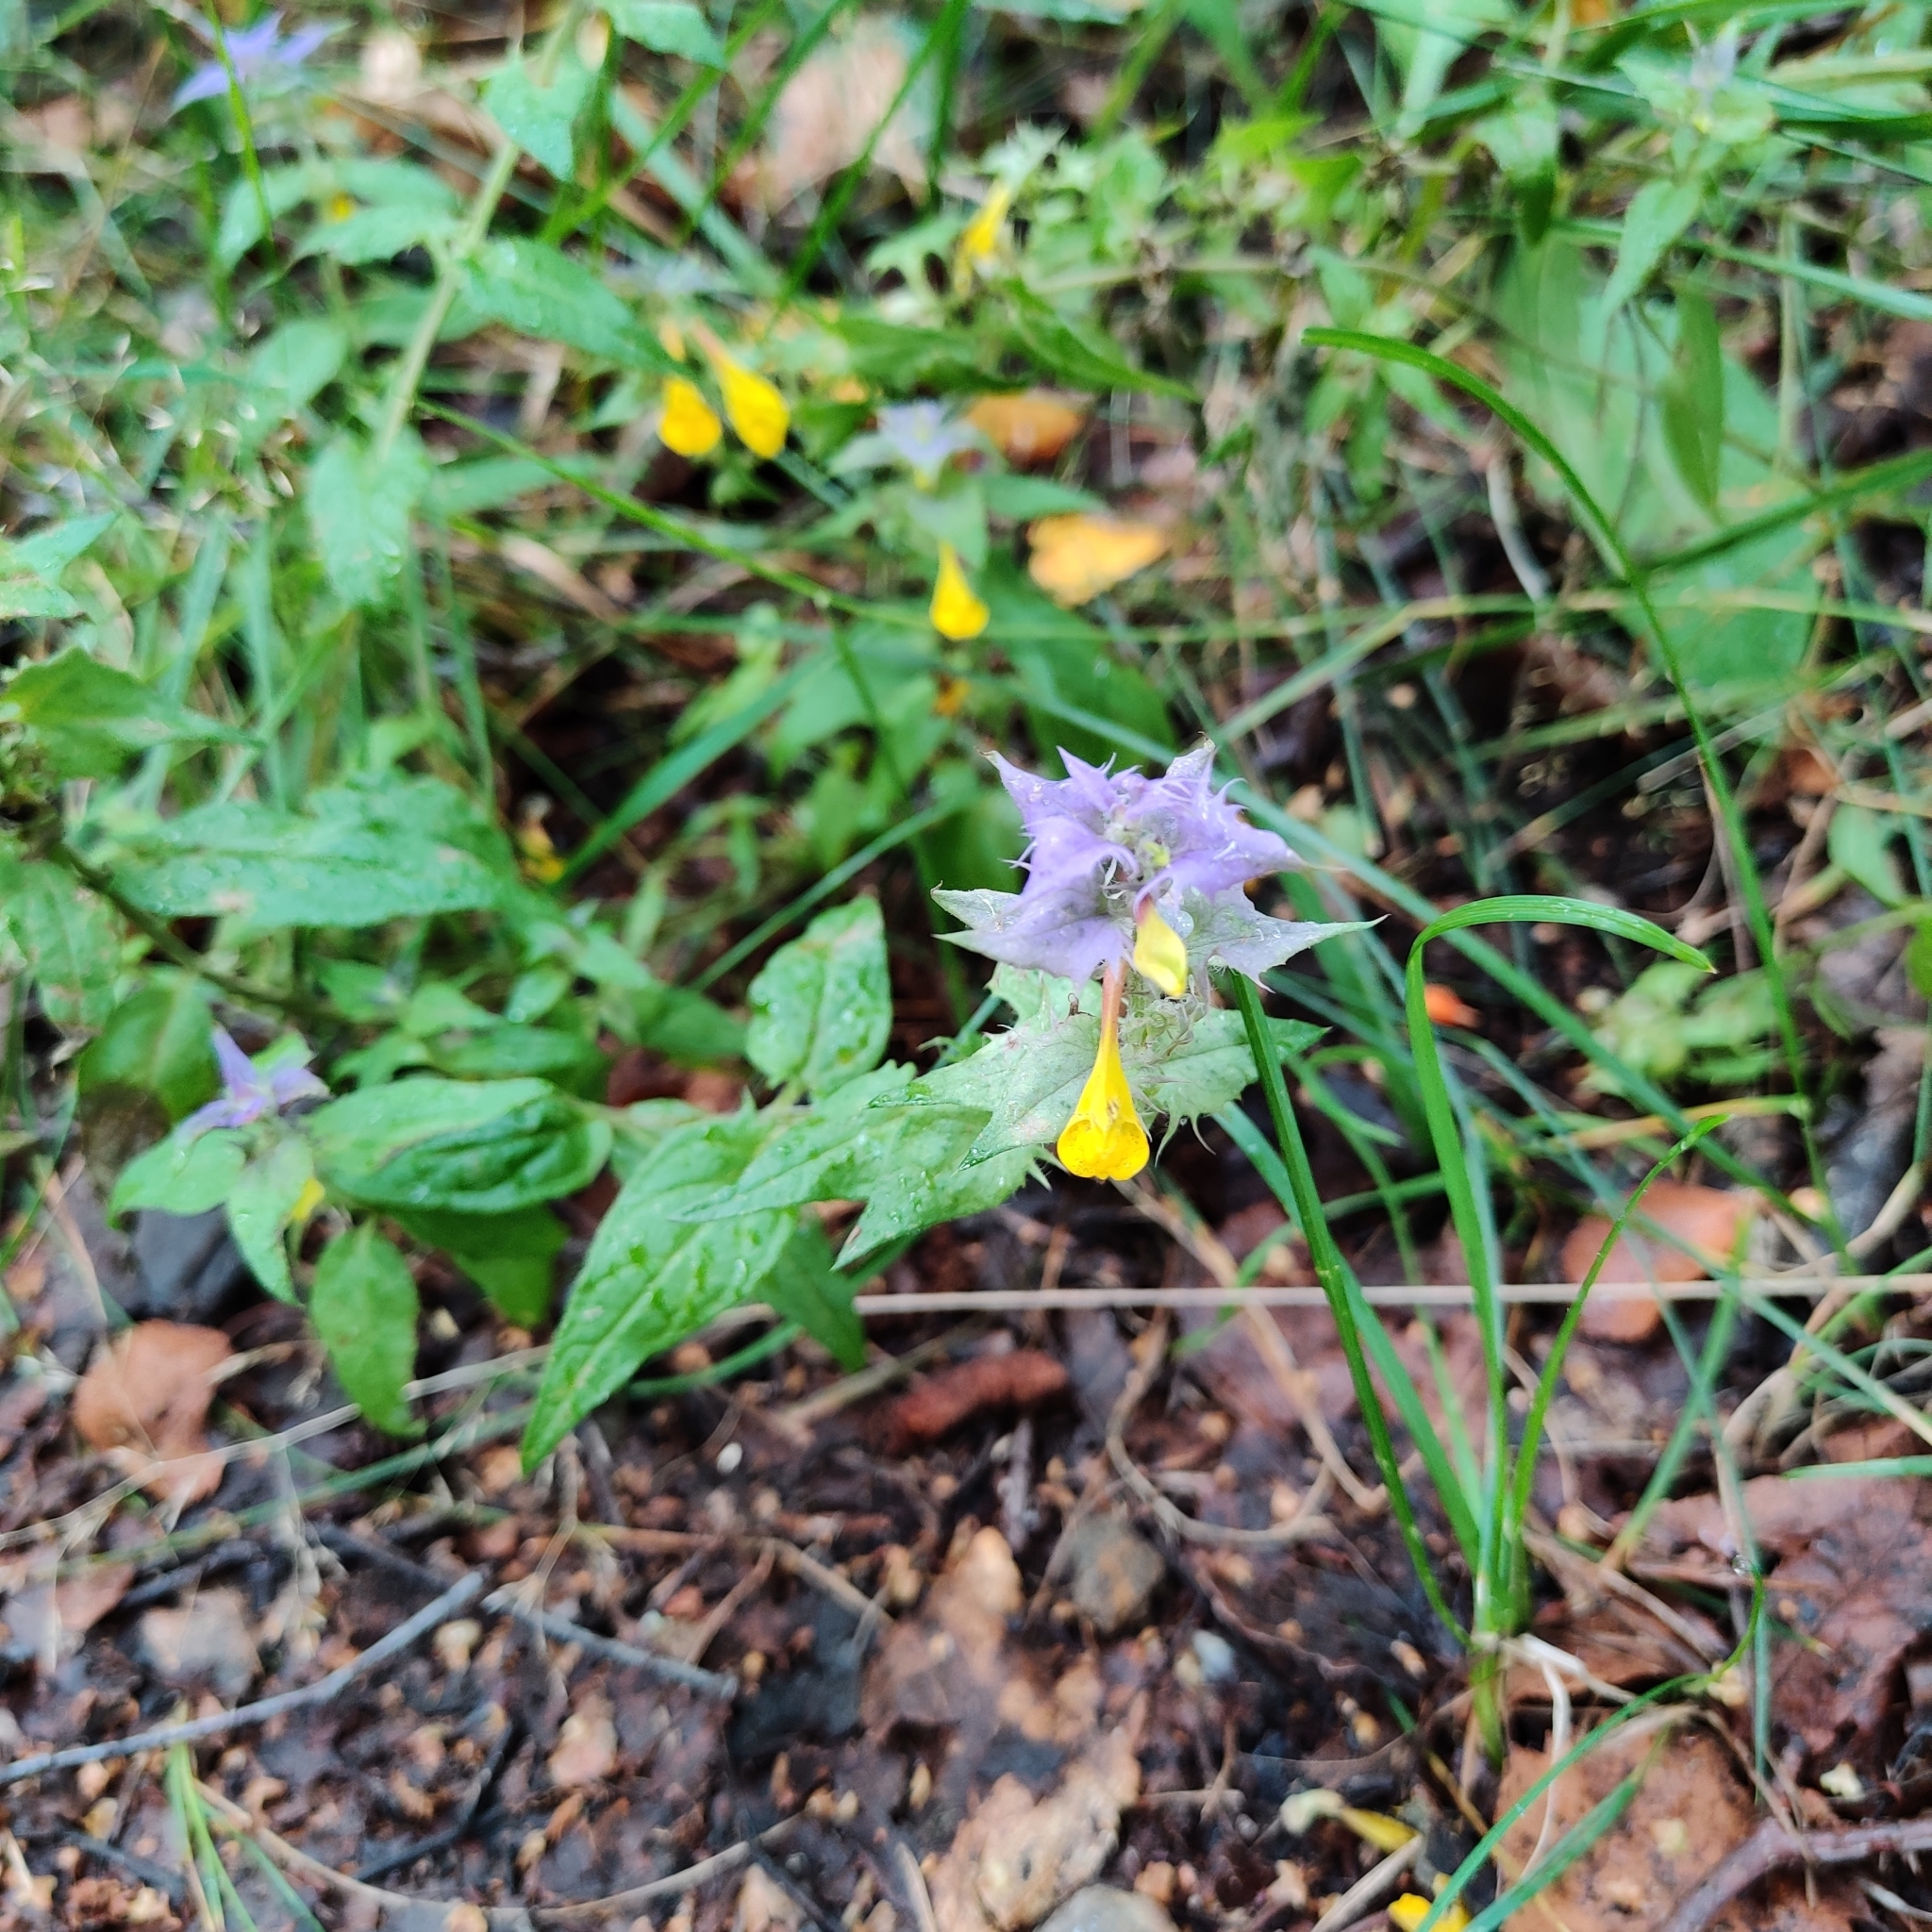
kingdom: Plantae
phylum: Tracheophyta
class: Magnoliopsida
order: Lamiales
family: Orobanchaceae
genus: Melampyrum
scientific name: Melampyrum nemorosum
